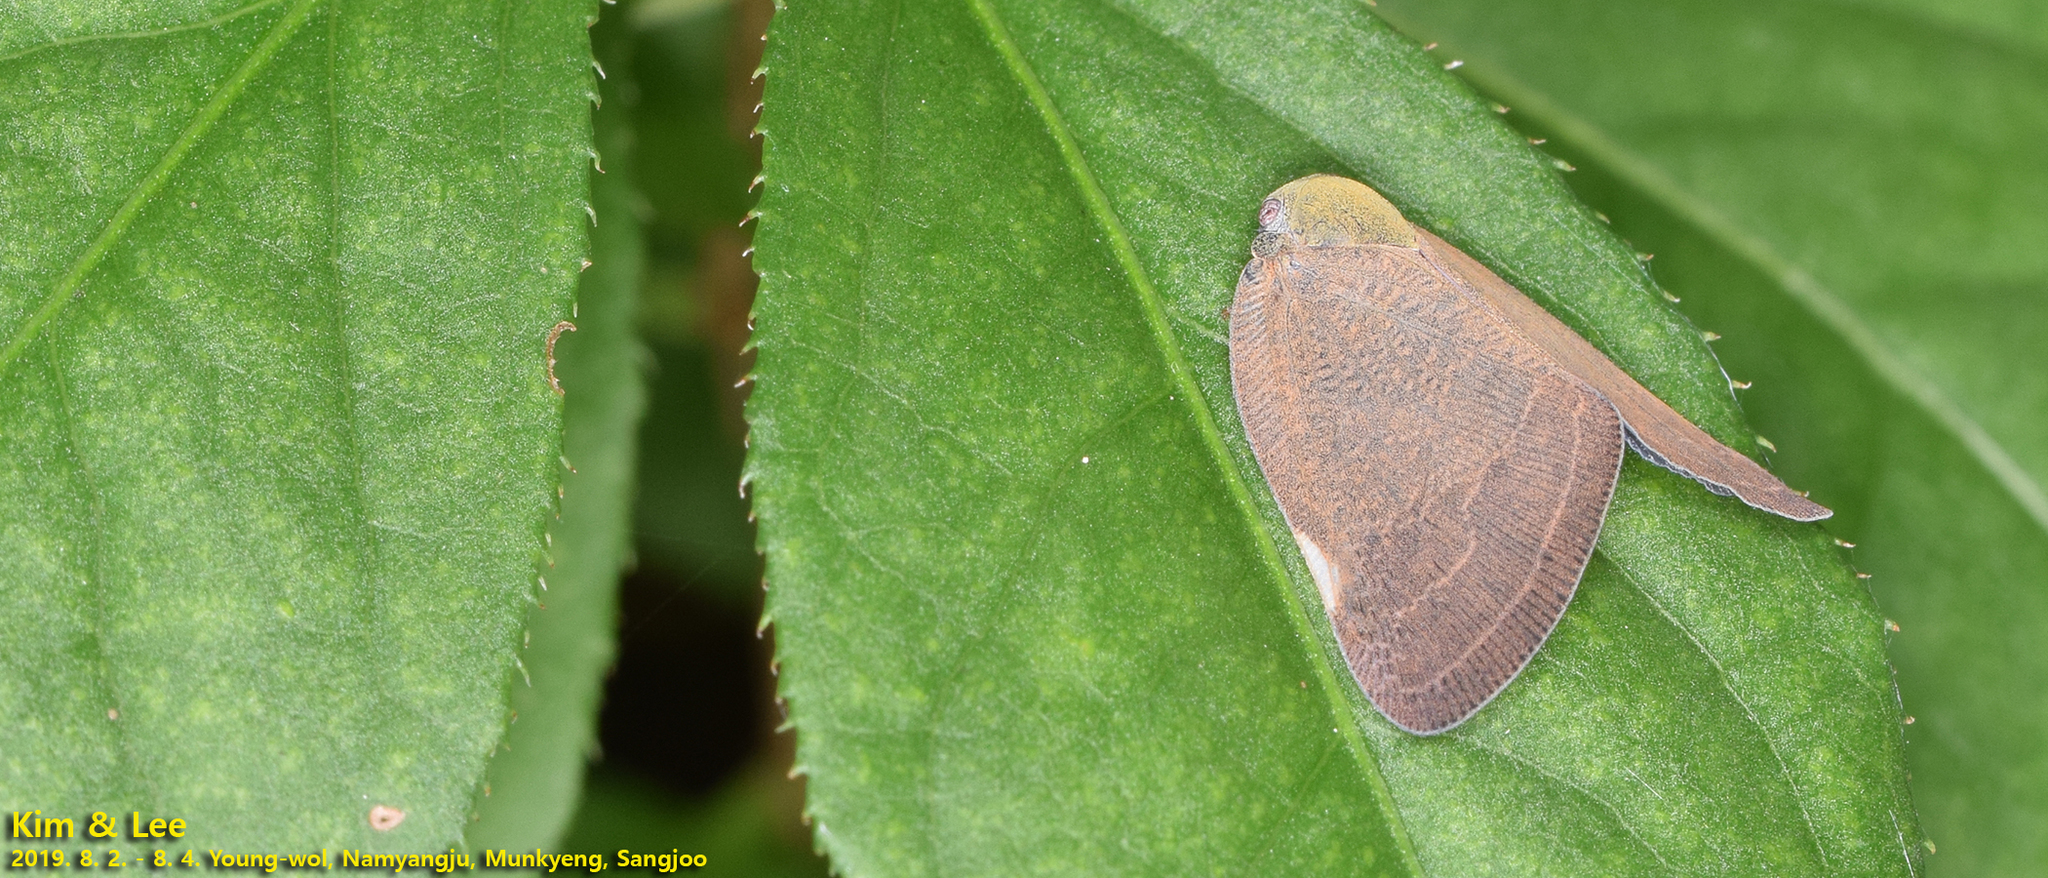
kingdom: Animalia
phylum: Arthropoda
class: Insecta
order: Hemiptera
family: Ricaniidae
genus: Ricanula
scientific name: Ricanula sublimata
